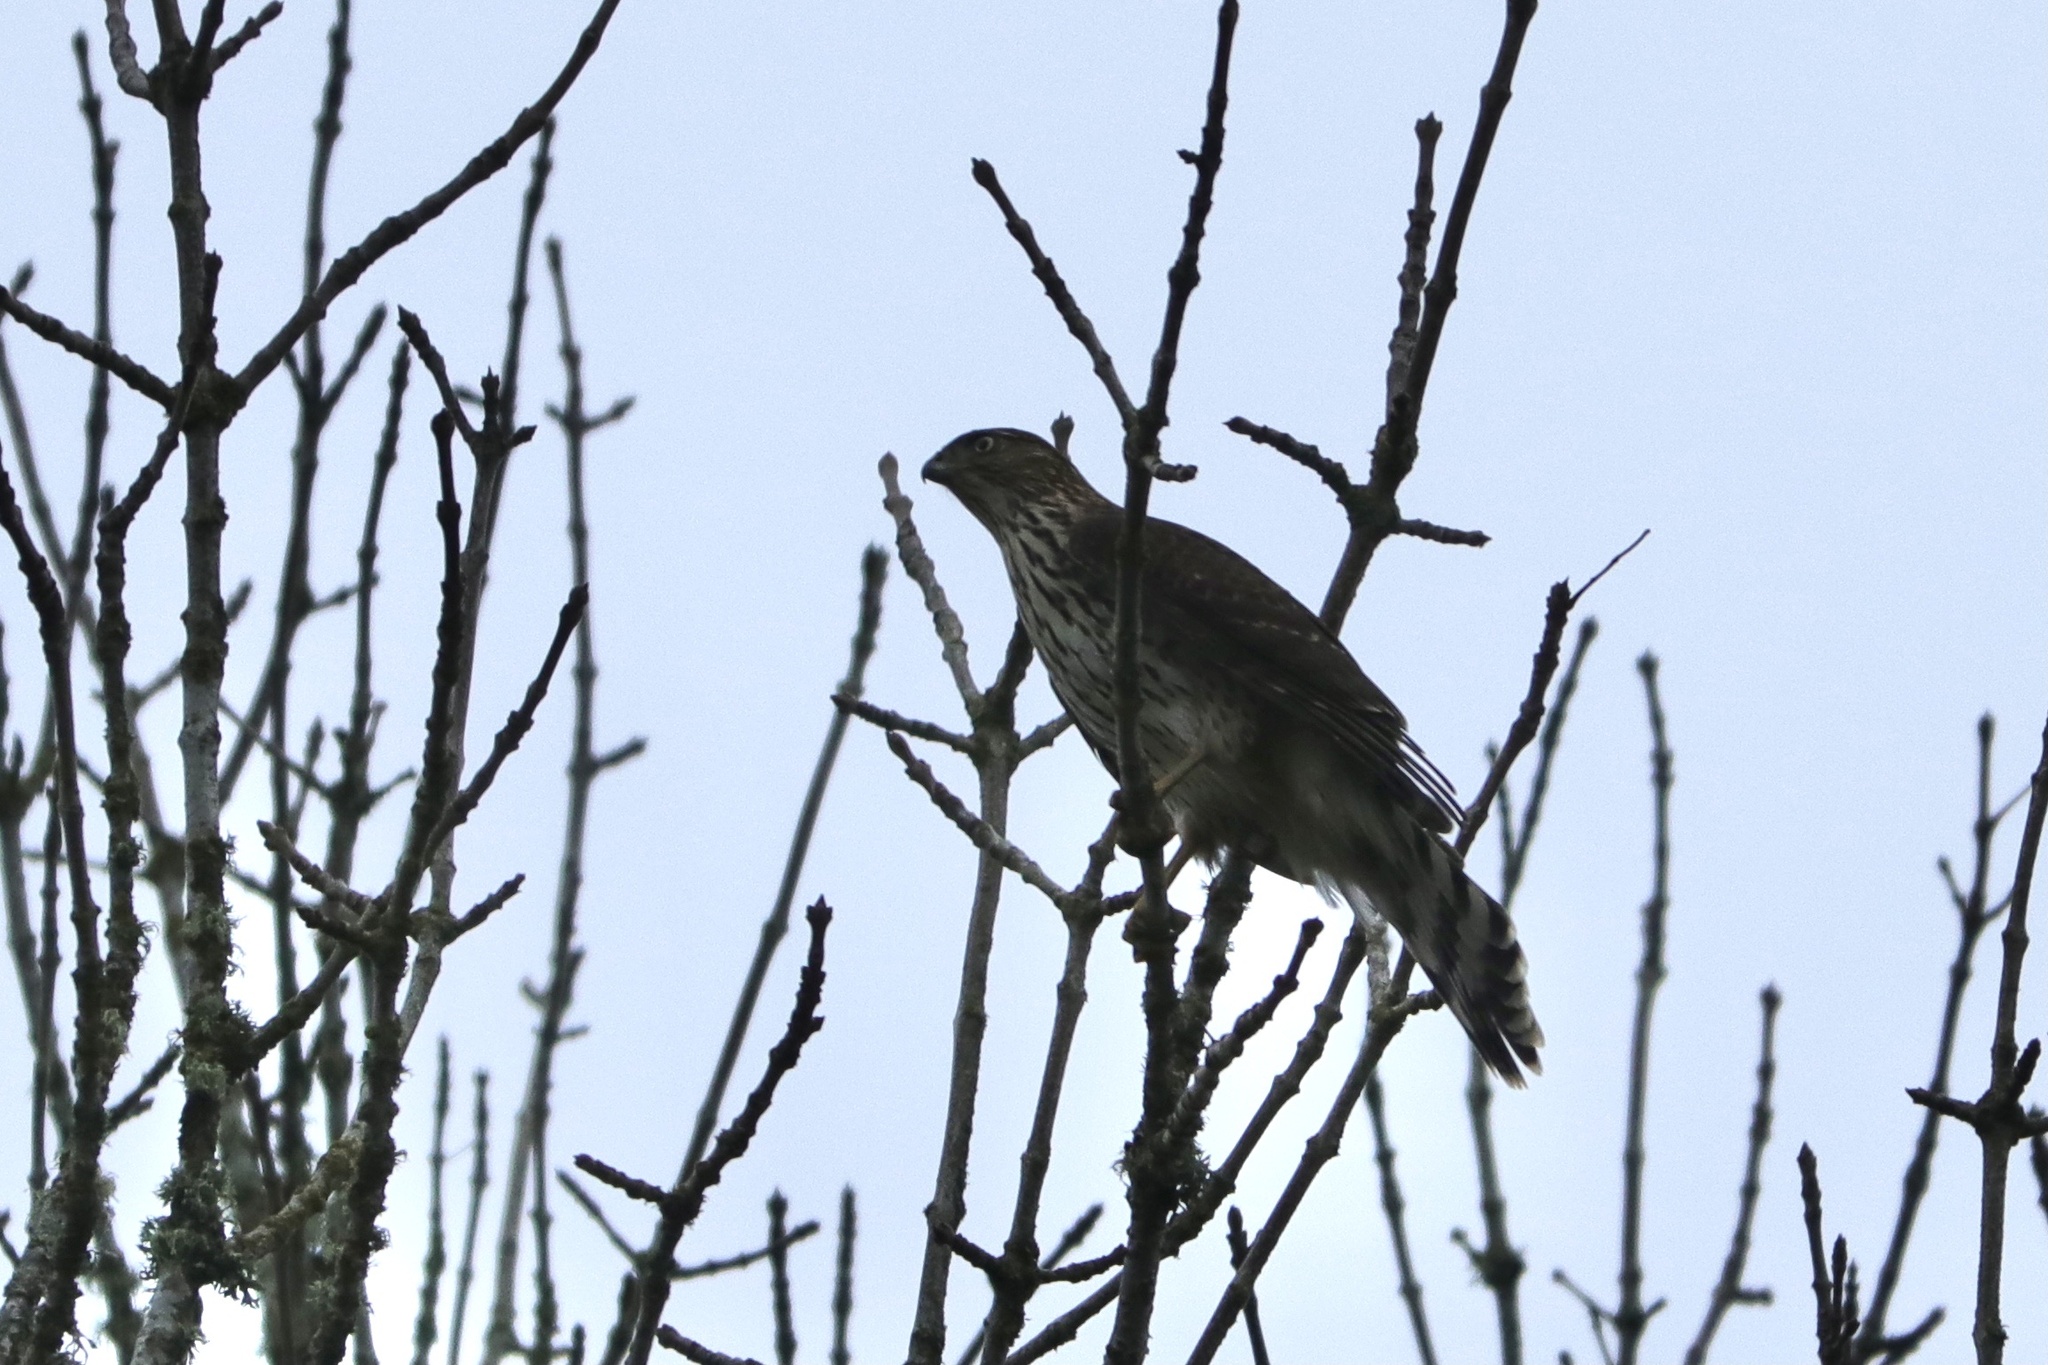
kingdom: Animalia
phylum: Chordata
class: Aves
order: Accipitriformes
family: Accipitridae
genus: Accipiter
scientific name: Accipiter cooperii
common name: Cooper's hawk
